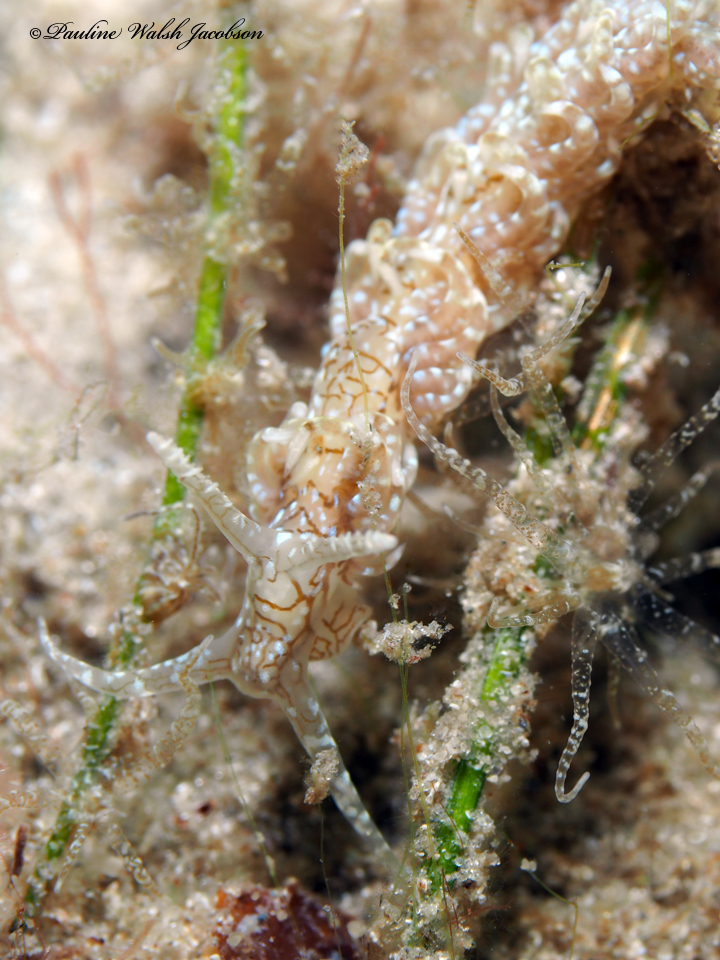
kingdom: Animalia
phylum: Mollusca
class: Gastropoda
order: Nudibranchia
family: Aeolidiidae
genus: Spurilla
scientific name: Spurilla dupontae
